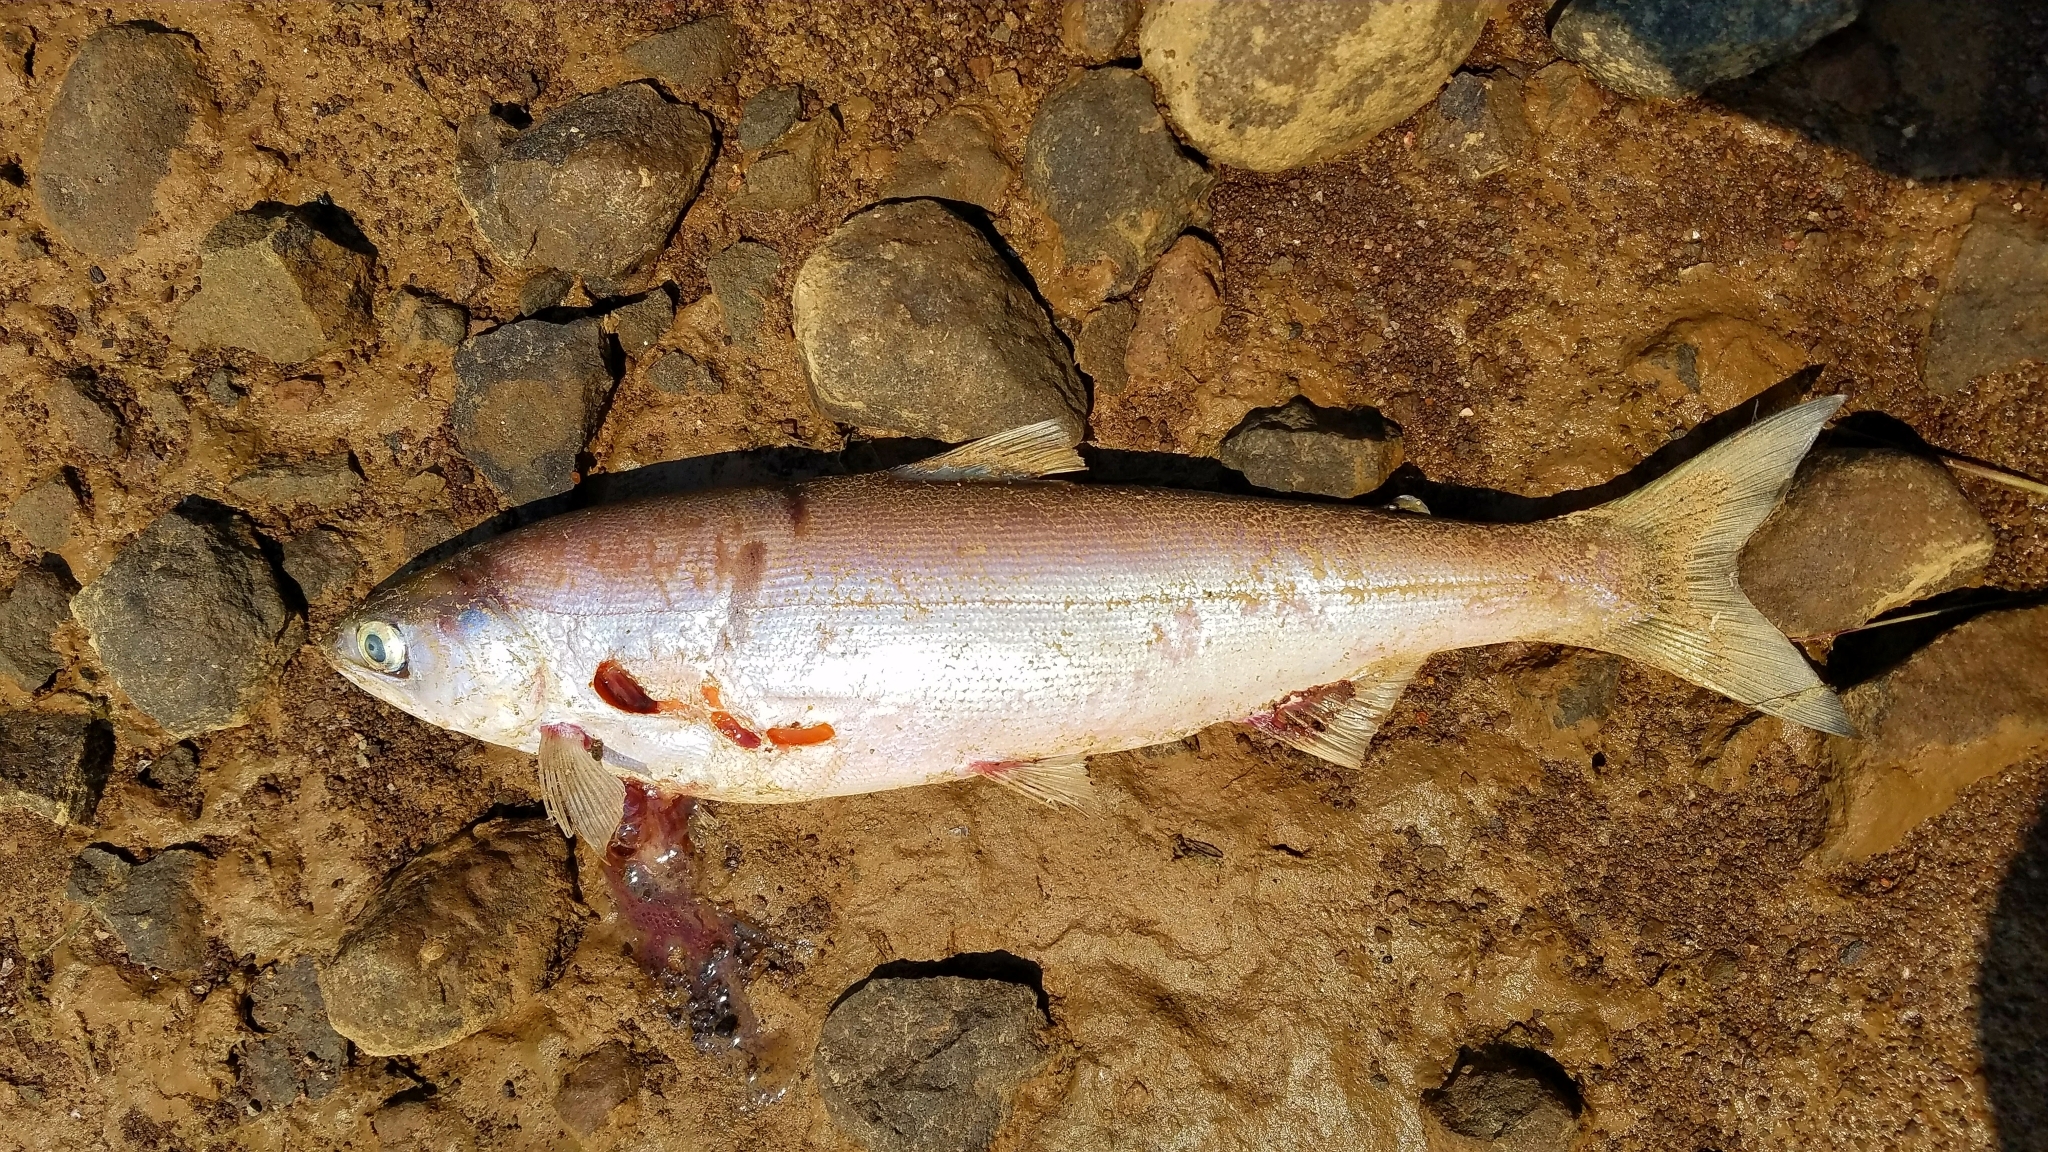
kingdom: Animalia
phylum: Chordata
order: Salmoniformes
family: Salmonidae
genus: Oncorhynchus
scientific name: Oncorhynchus nerka
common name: Sockeye salmon
